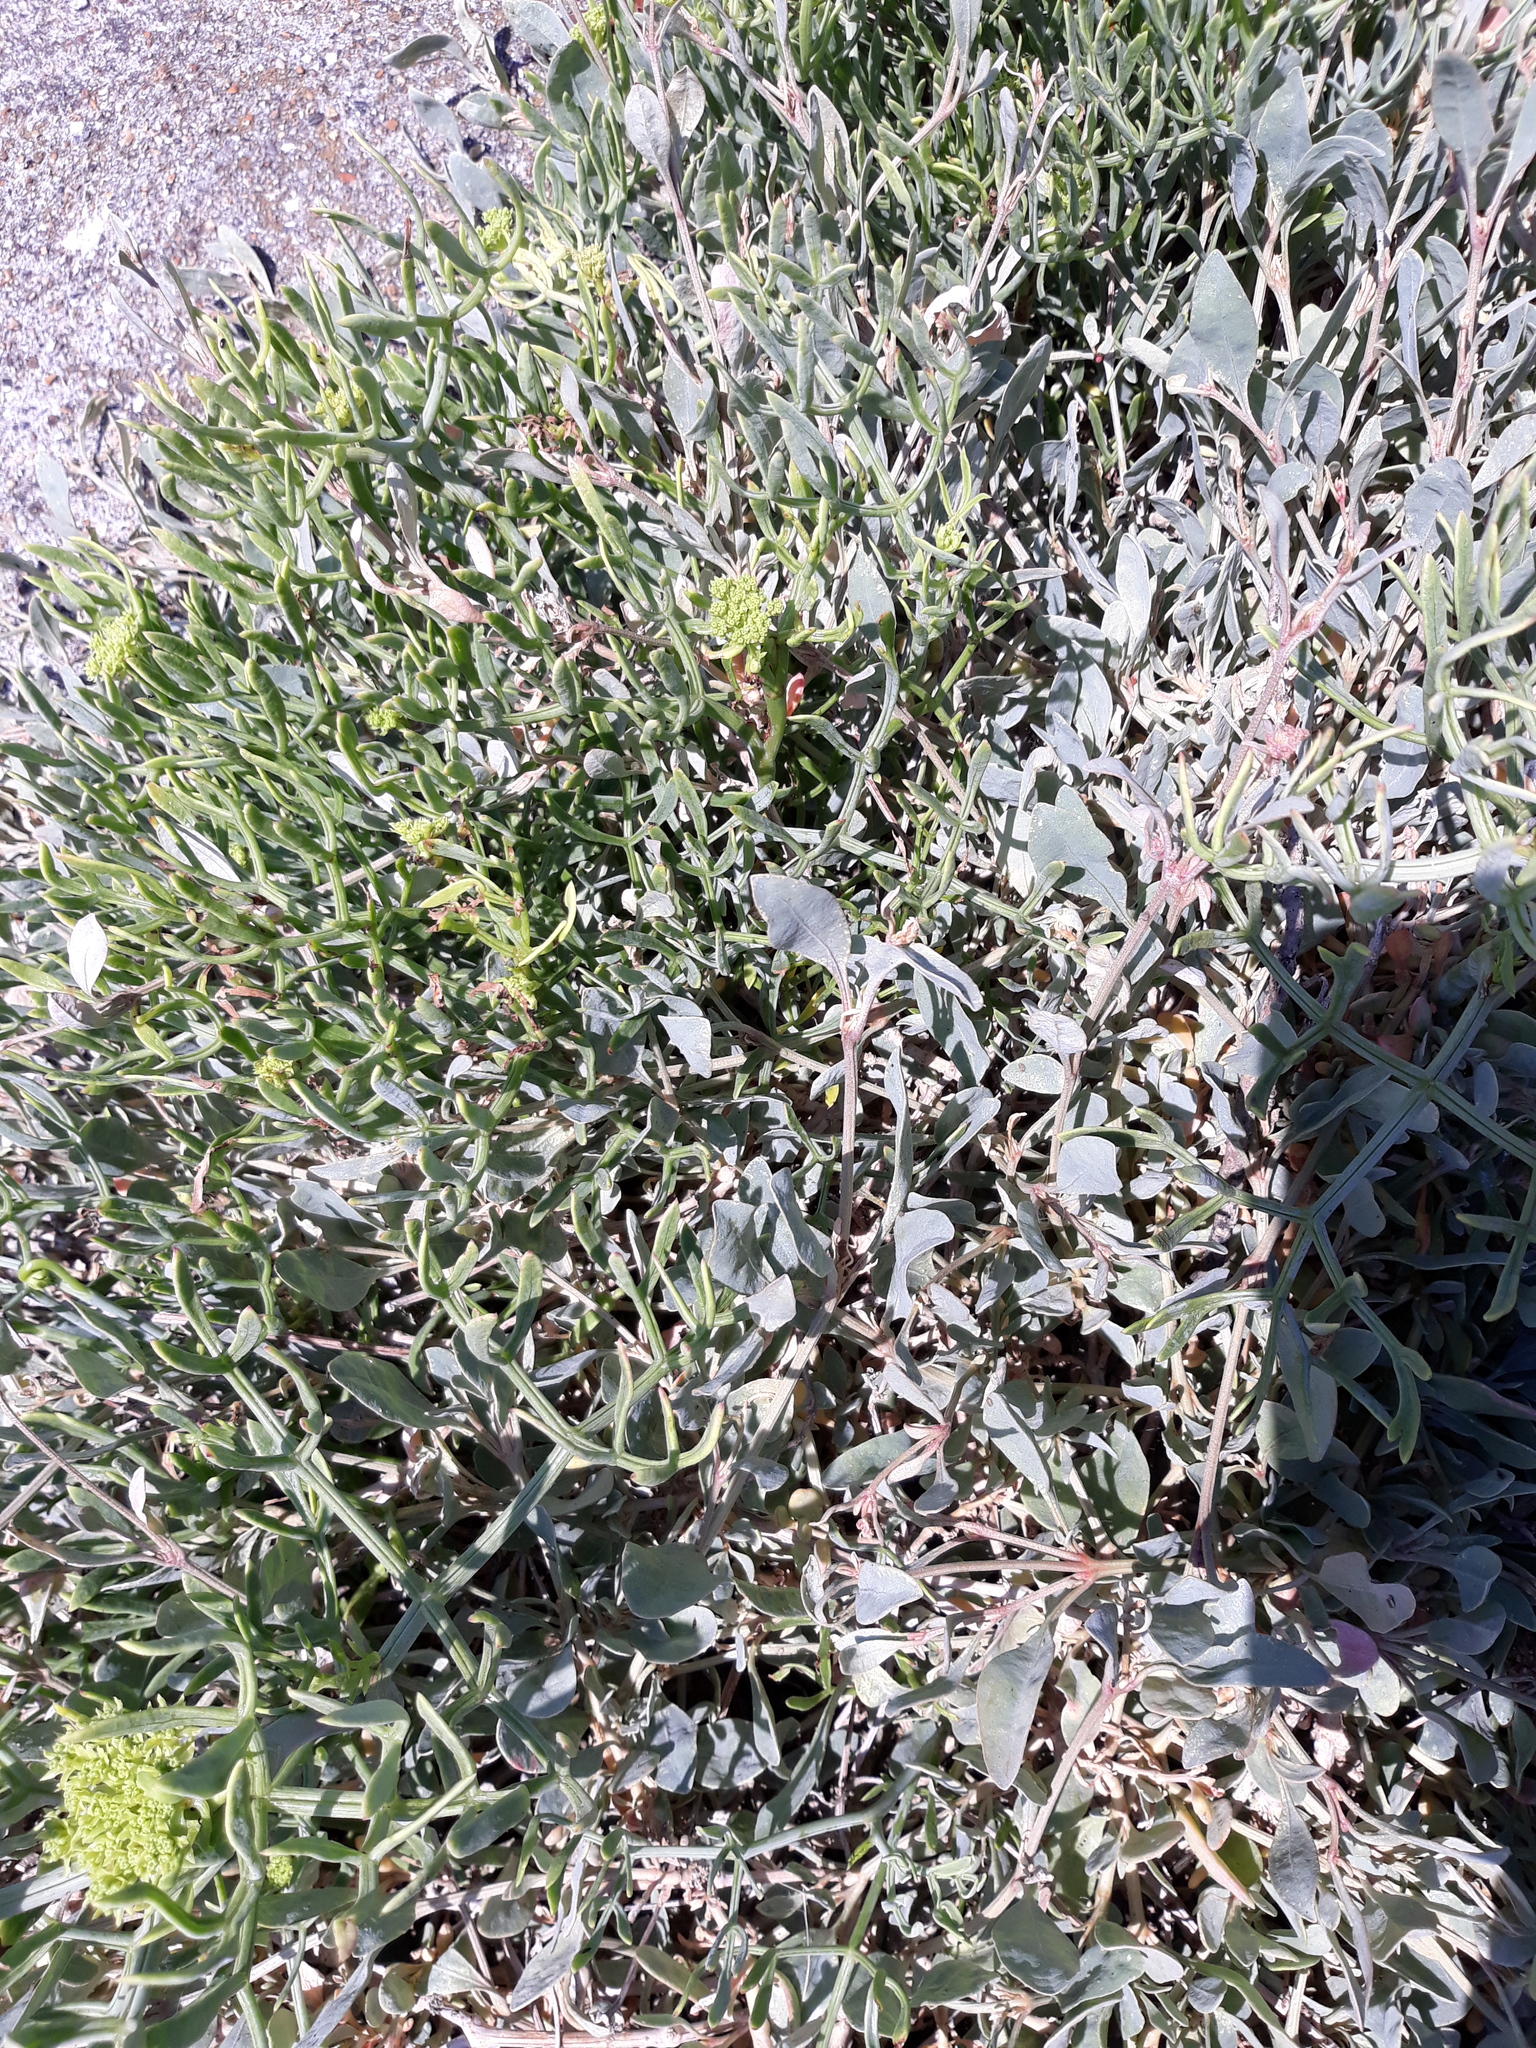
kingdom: Plantae
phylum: Tracheophyta
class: Magnoliopsida
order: Caryophyllales
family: Amaranthaceae
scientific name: Amaranthaceae
